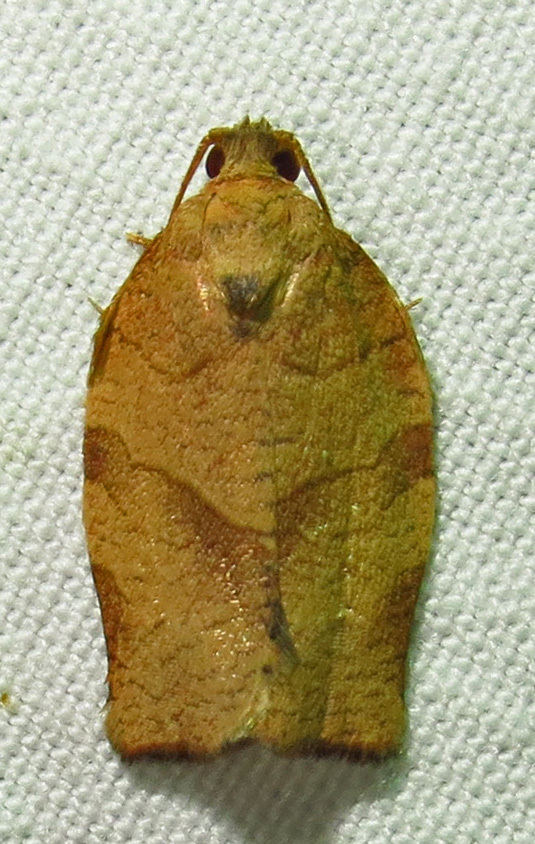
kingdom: Animalia
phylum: Arthropoda
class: Insecta
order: Lepidoptera
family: Tortricidae
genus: Choristoneura
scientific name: Choristoneura rosaceana
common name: Oblique-banded leafroller moth
